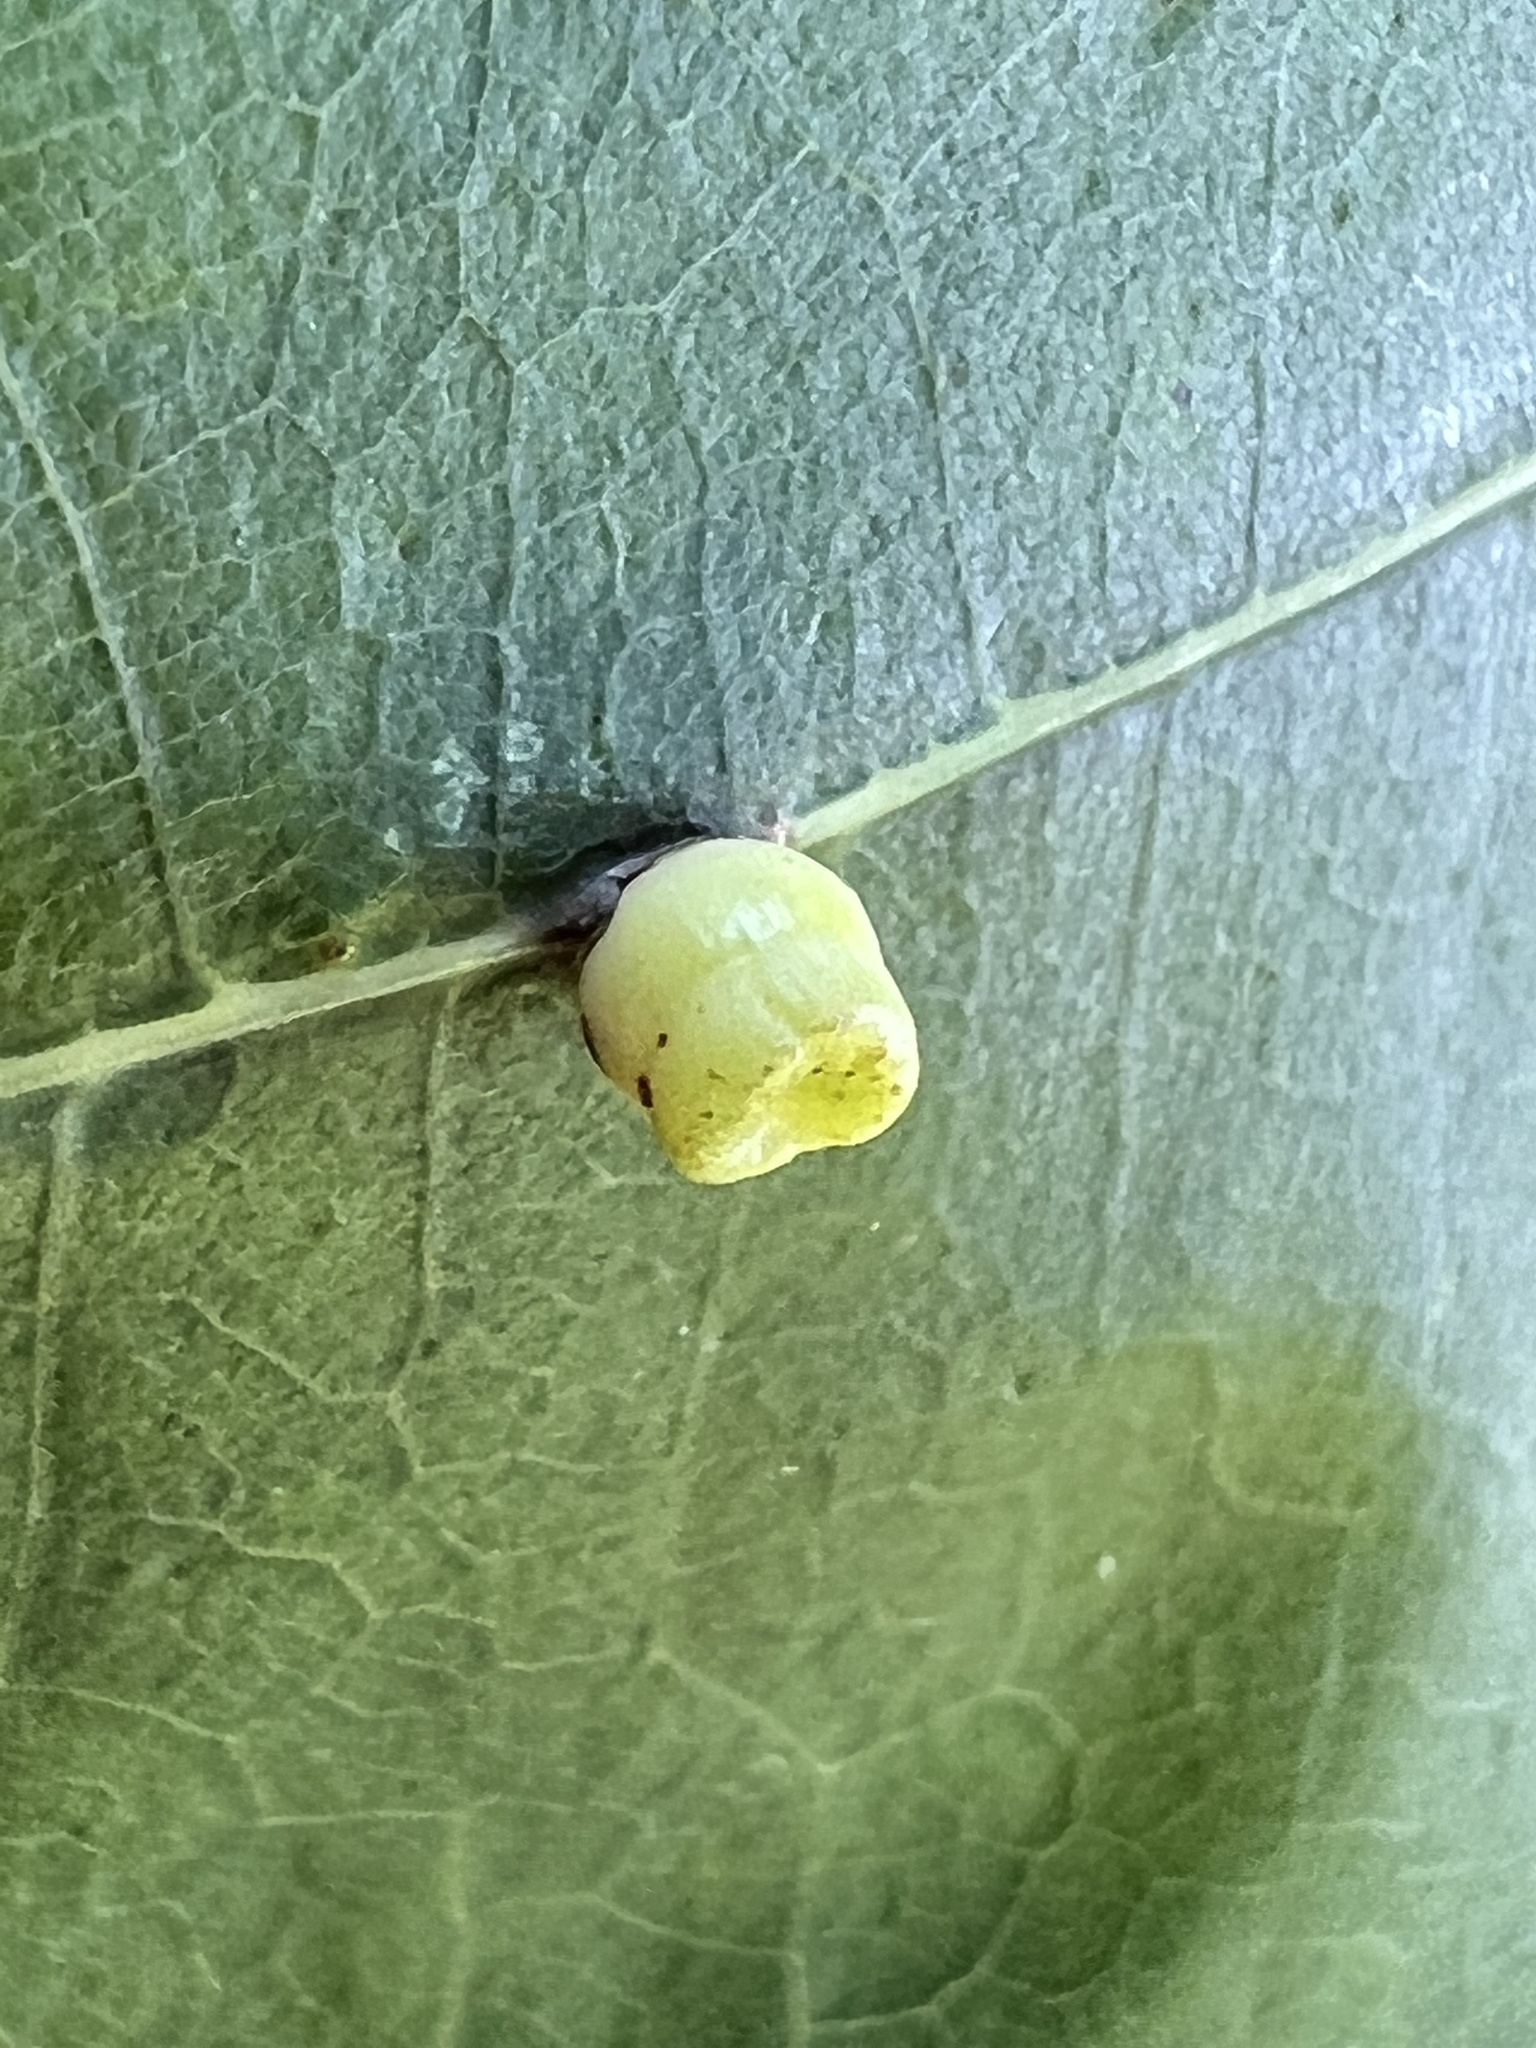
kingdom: Animalia
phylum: Arthropoda
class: Insecta
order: Hymenoptera
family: Cynipidae
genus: Kokkocynips
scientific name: Kokkocynips rileyi
